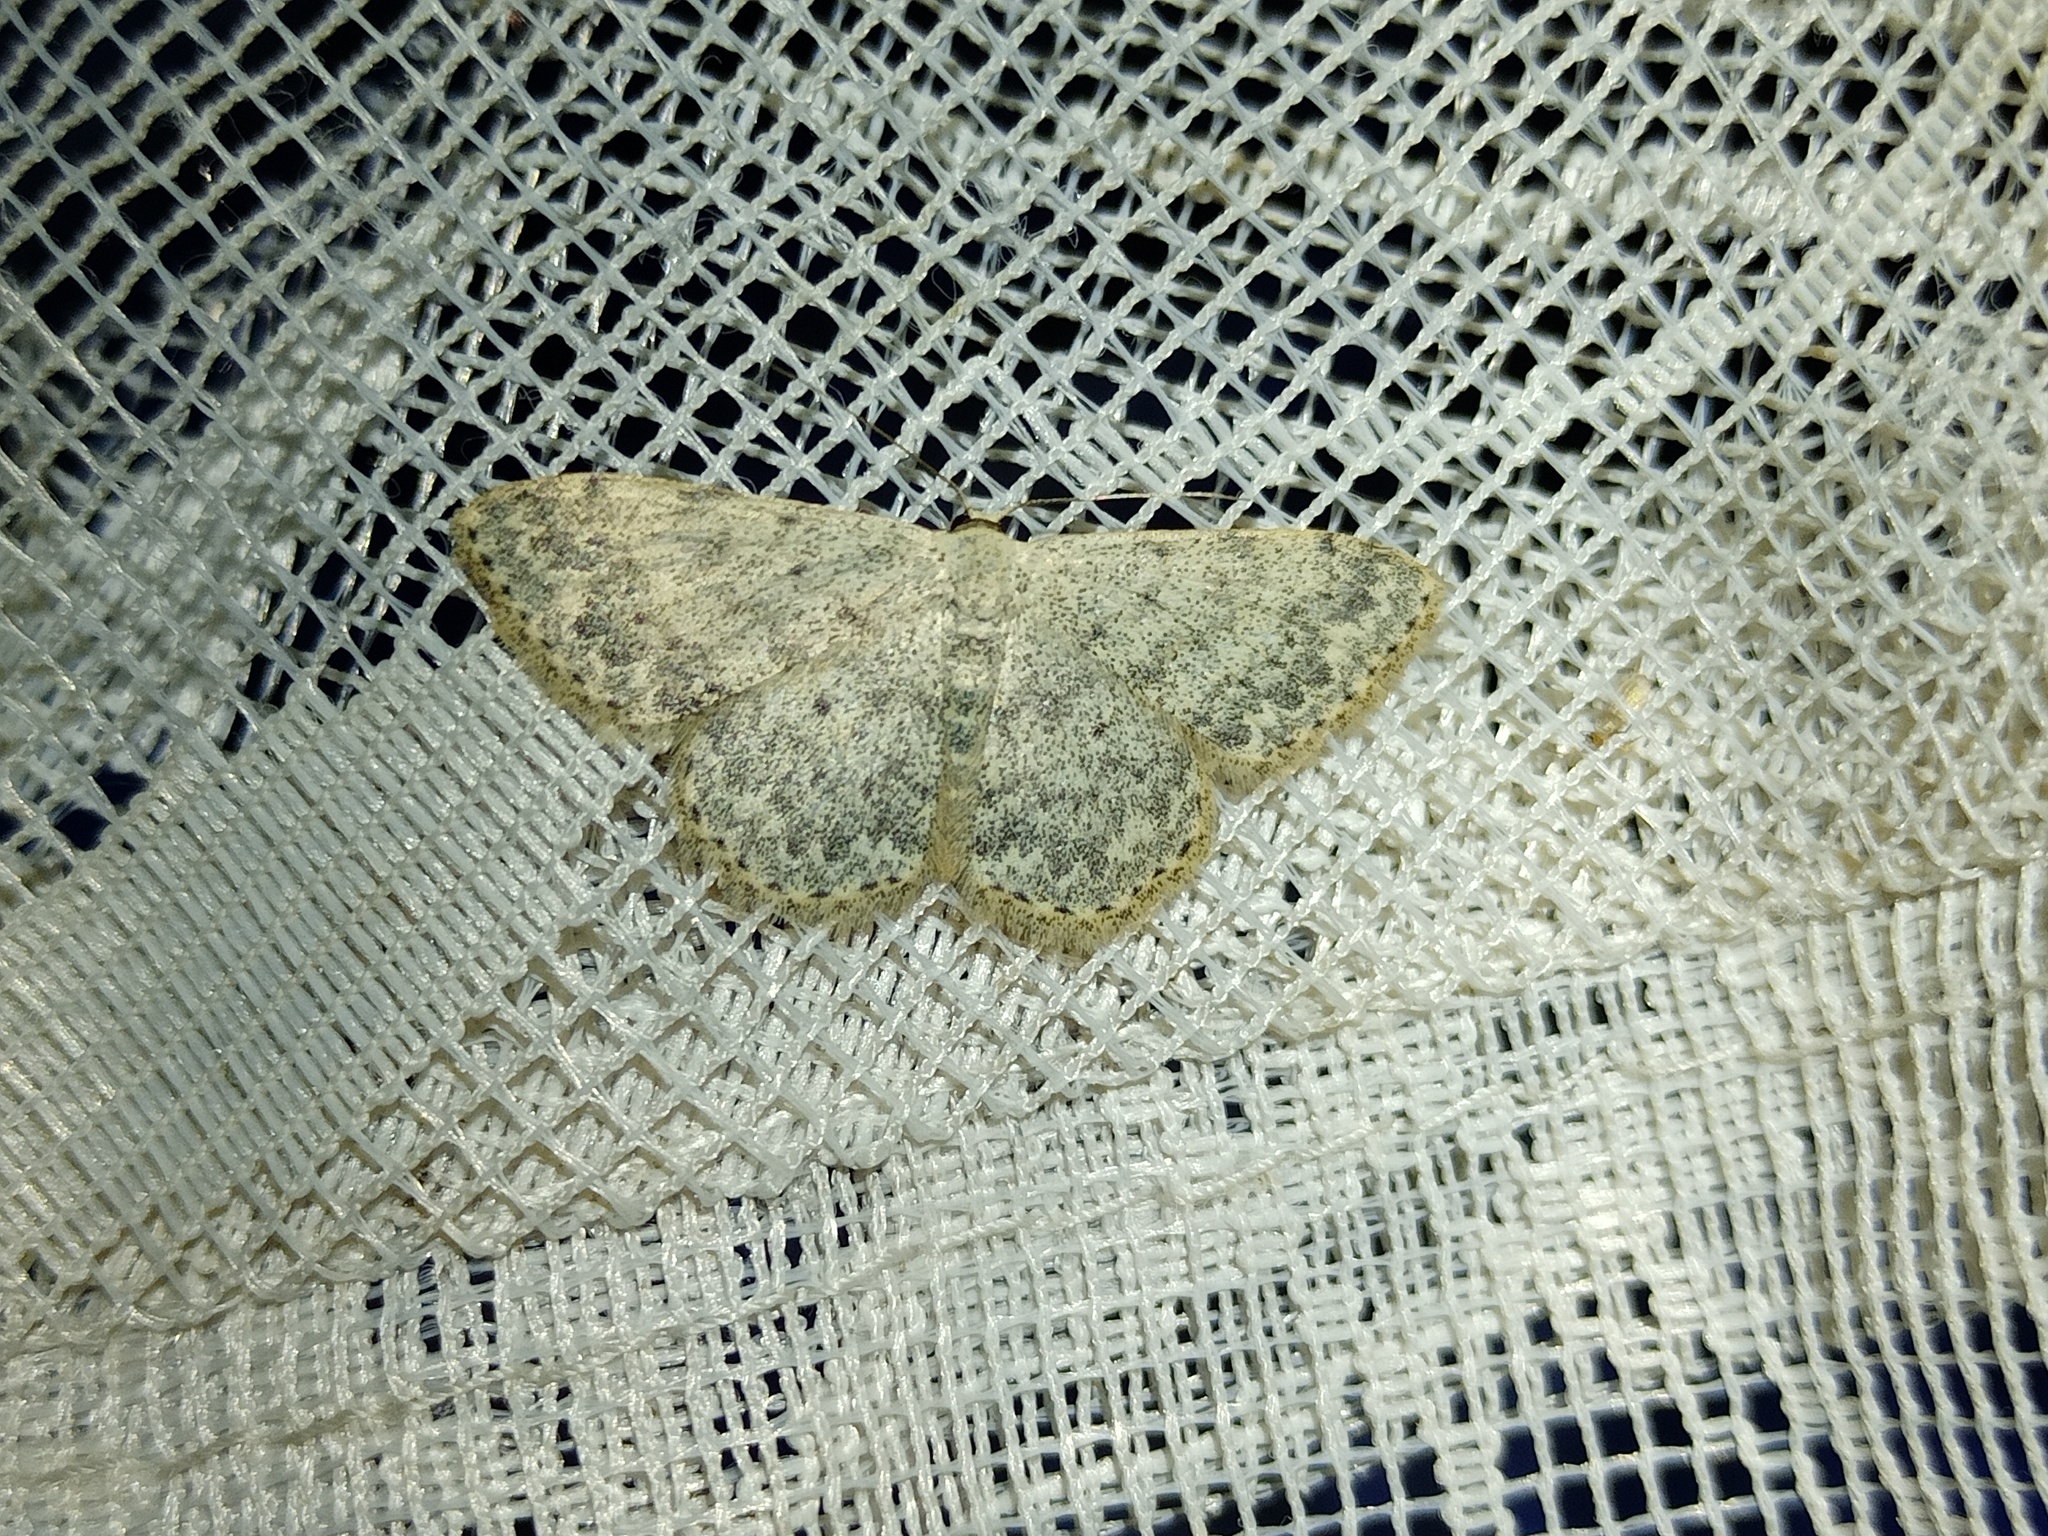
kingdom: Animalia
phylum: Arthropoda
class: Insecta
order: Lepidoptera
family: Geometridae
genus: Scopula
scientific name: Scopula marginepunctata
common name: Mullein wave
